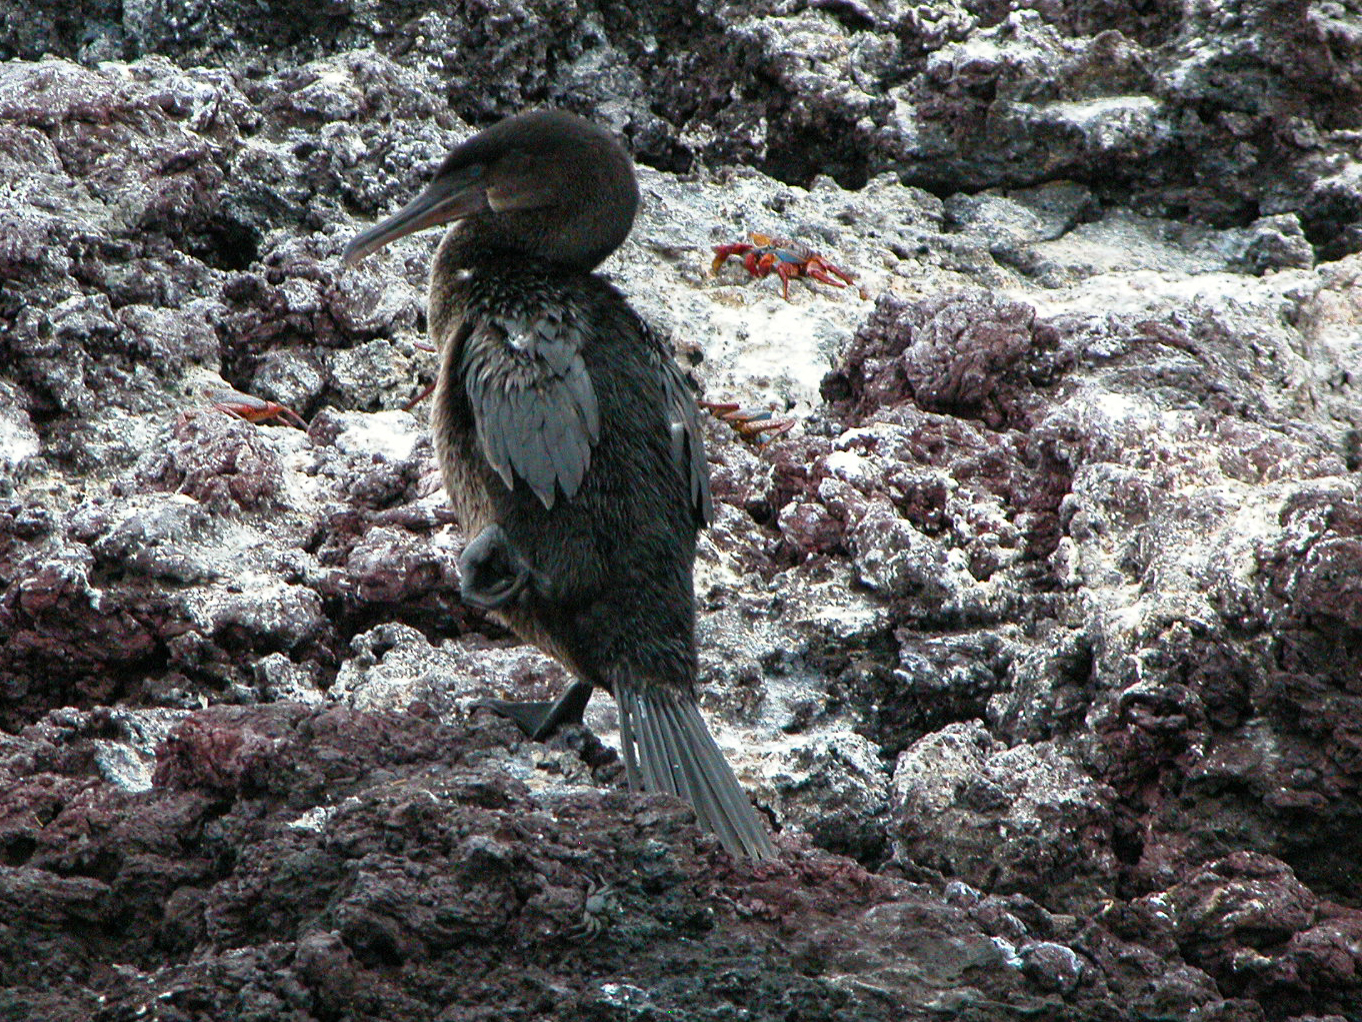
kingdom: Animalia
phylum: Chordata
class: Aves
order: Suliformes
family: Phalacrocoracidae
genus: Phalacrocorax
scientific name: Phalacrocorax harrisi
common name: Flightless cormorant
